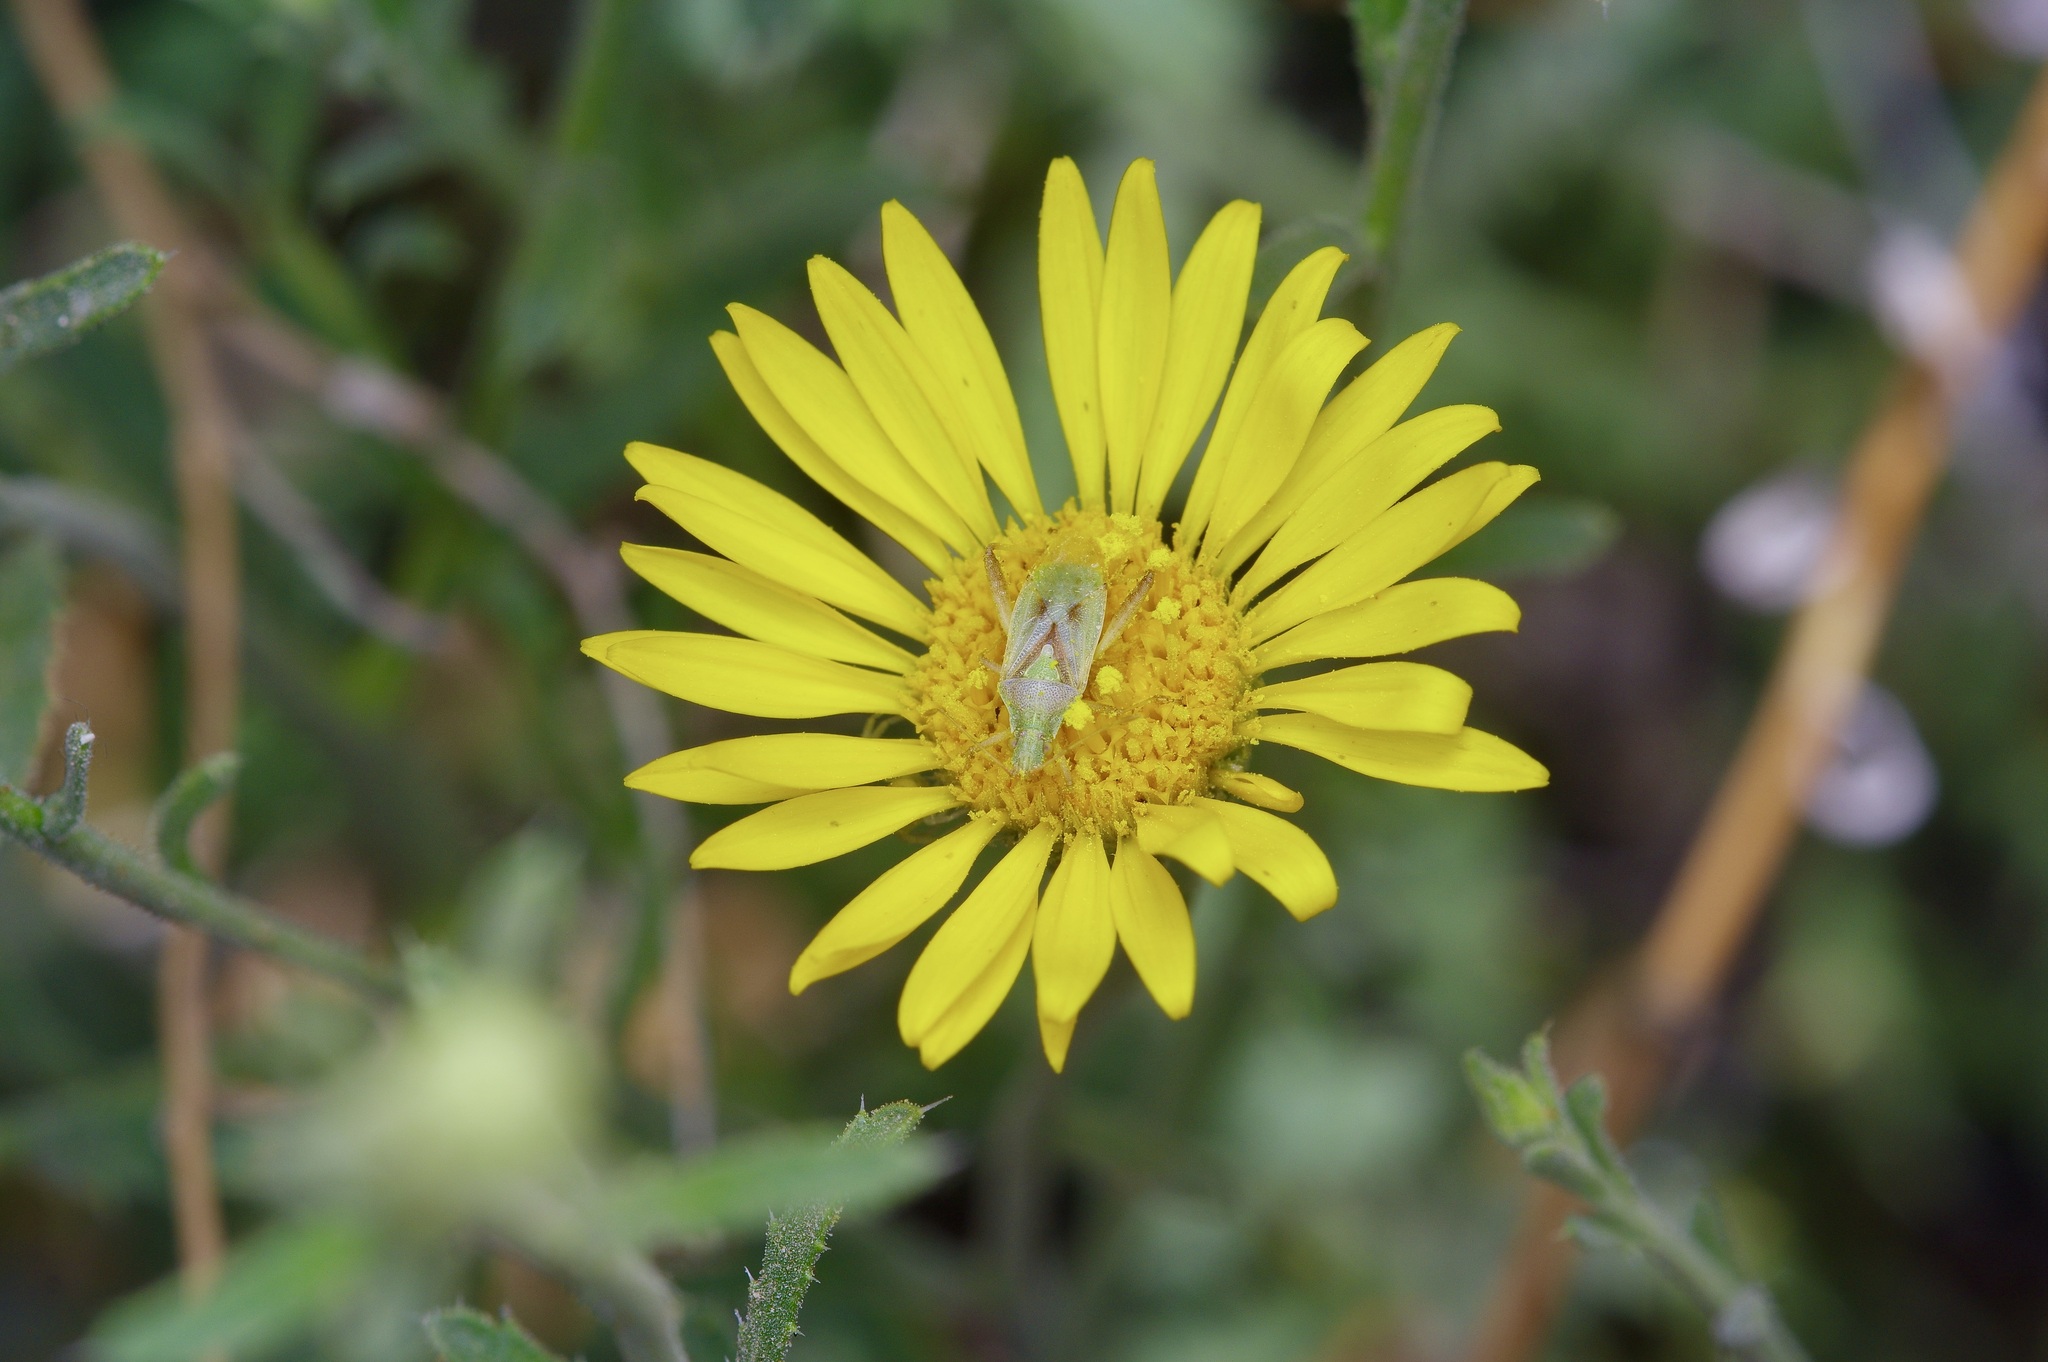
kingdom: Animalia
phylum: Arthropoda
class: Insecta
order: Hemiptera
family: Rhopalidae
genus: Harmostes
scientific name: Harmostes reflexulus
